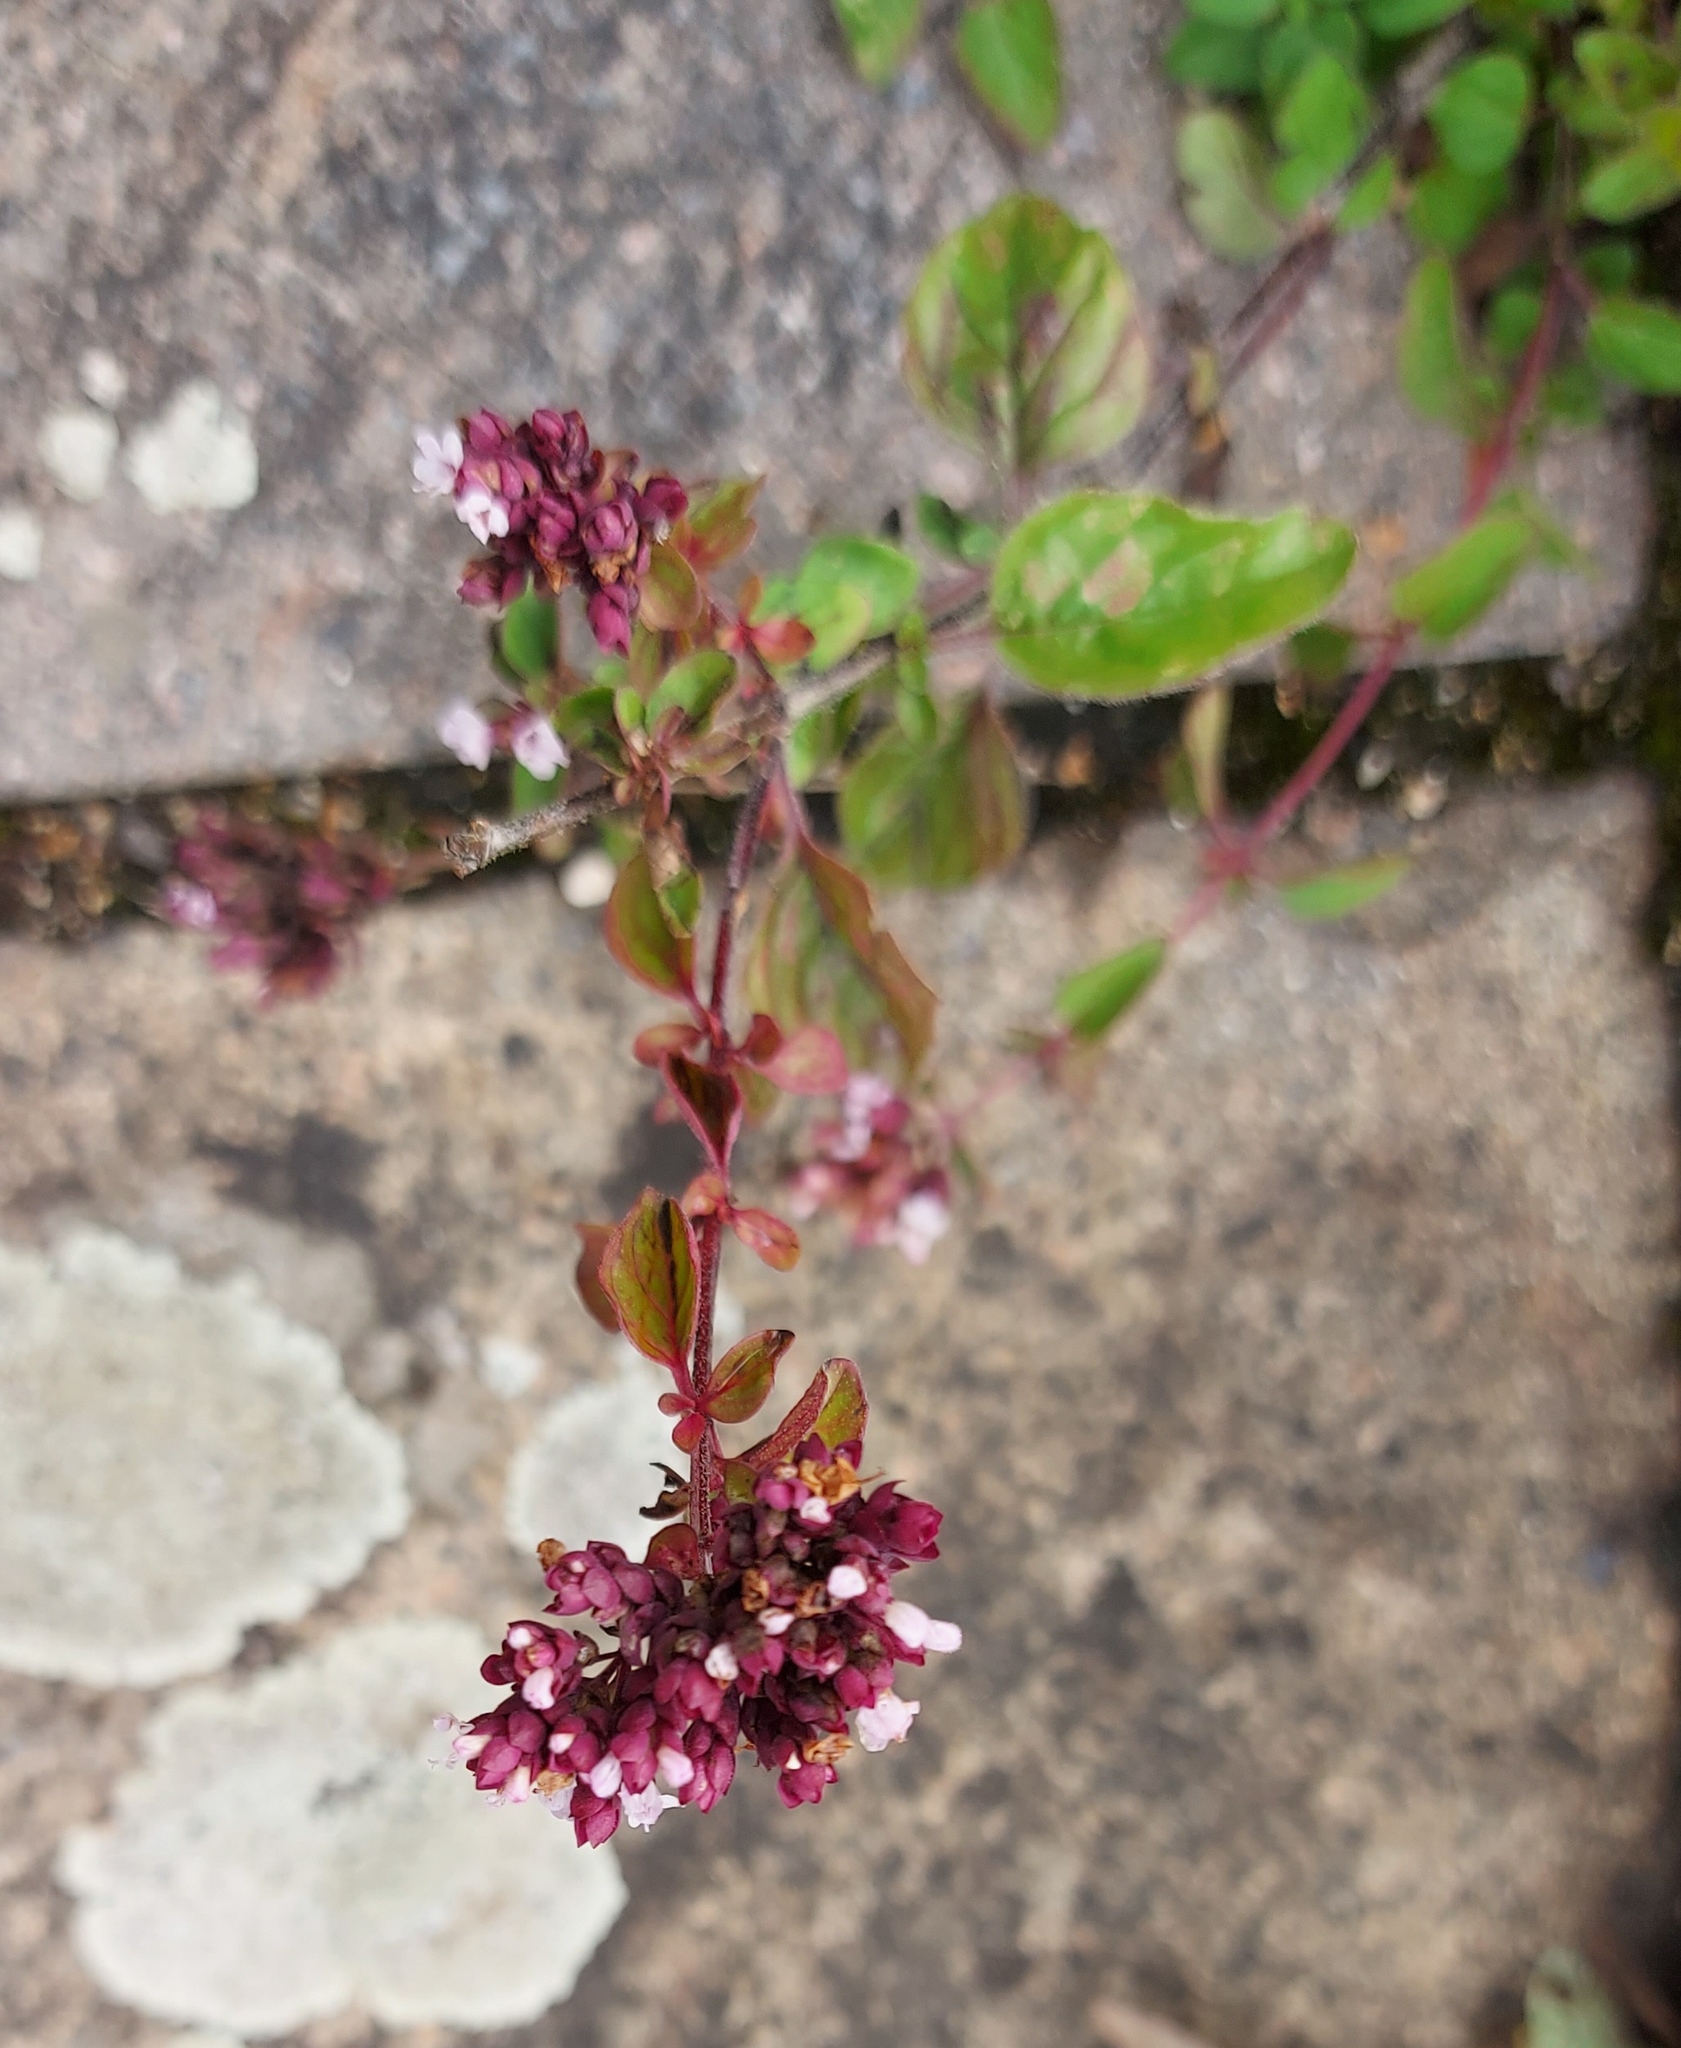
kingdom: Plantae
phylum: Tracheophyta
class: Magnoliopsida
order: Lamiales
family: Lamiaceae
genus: Origanum
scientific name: Origanum vulgare
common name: Wild marjoram
